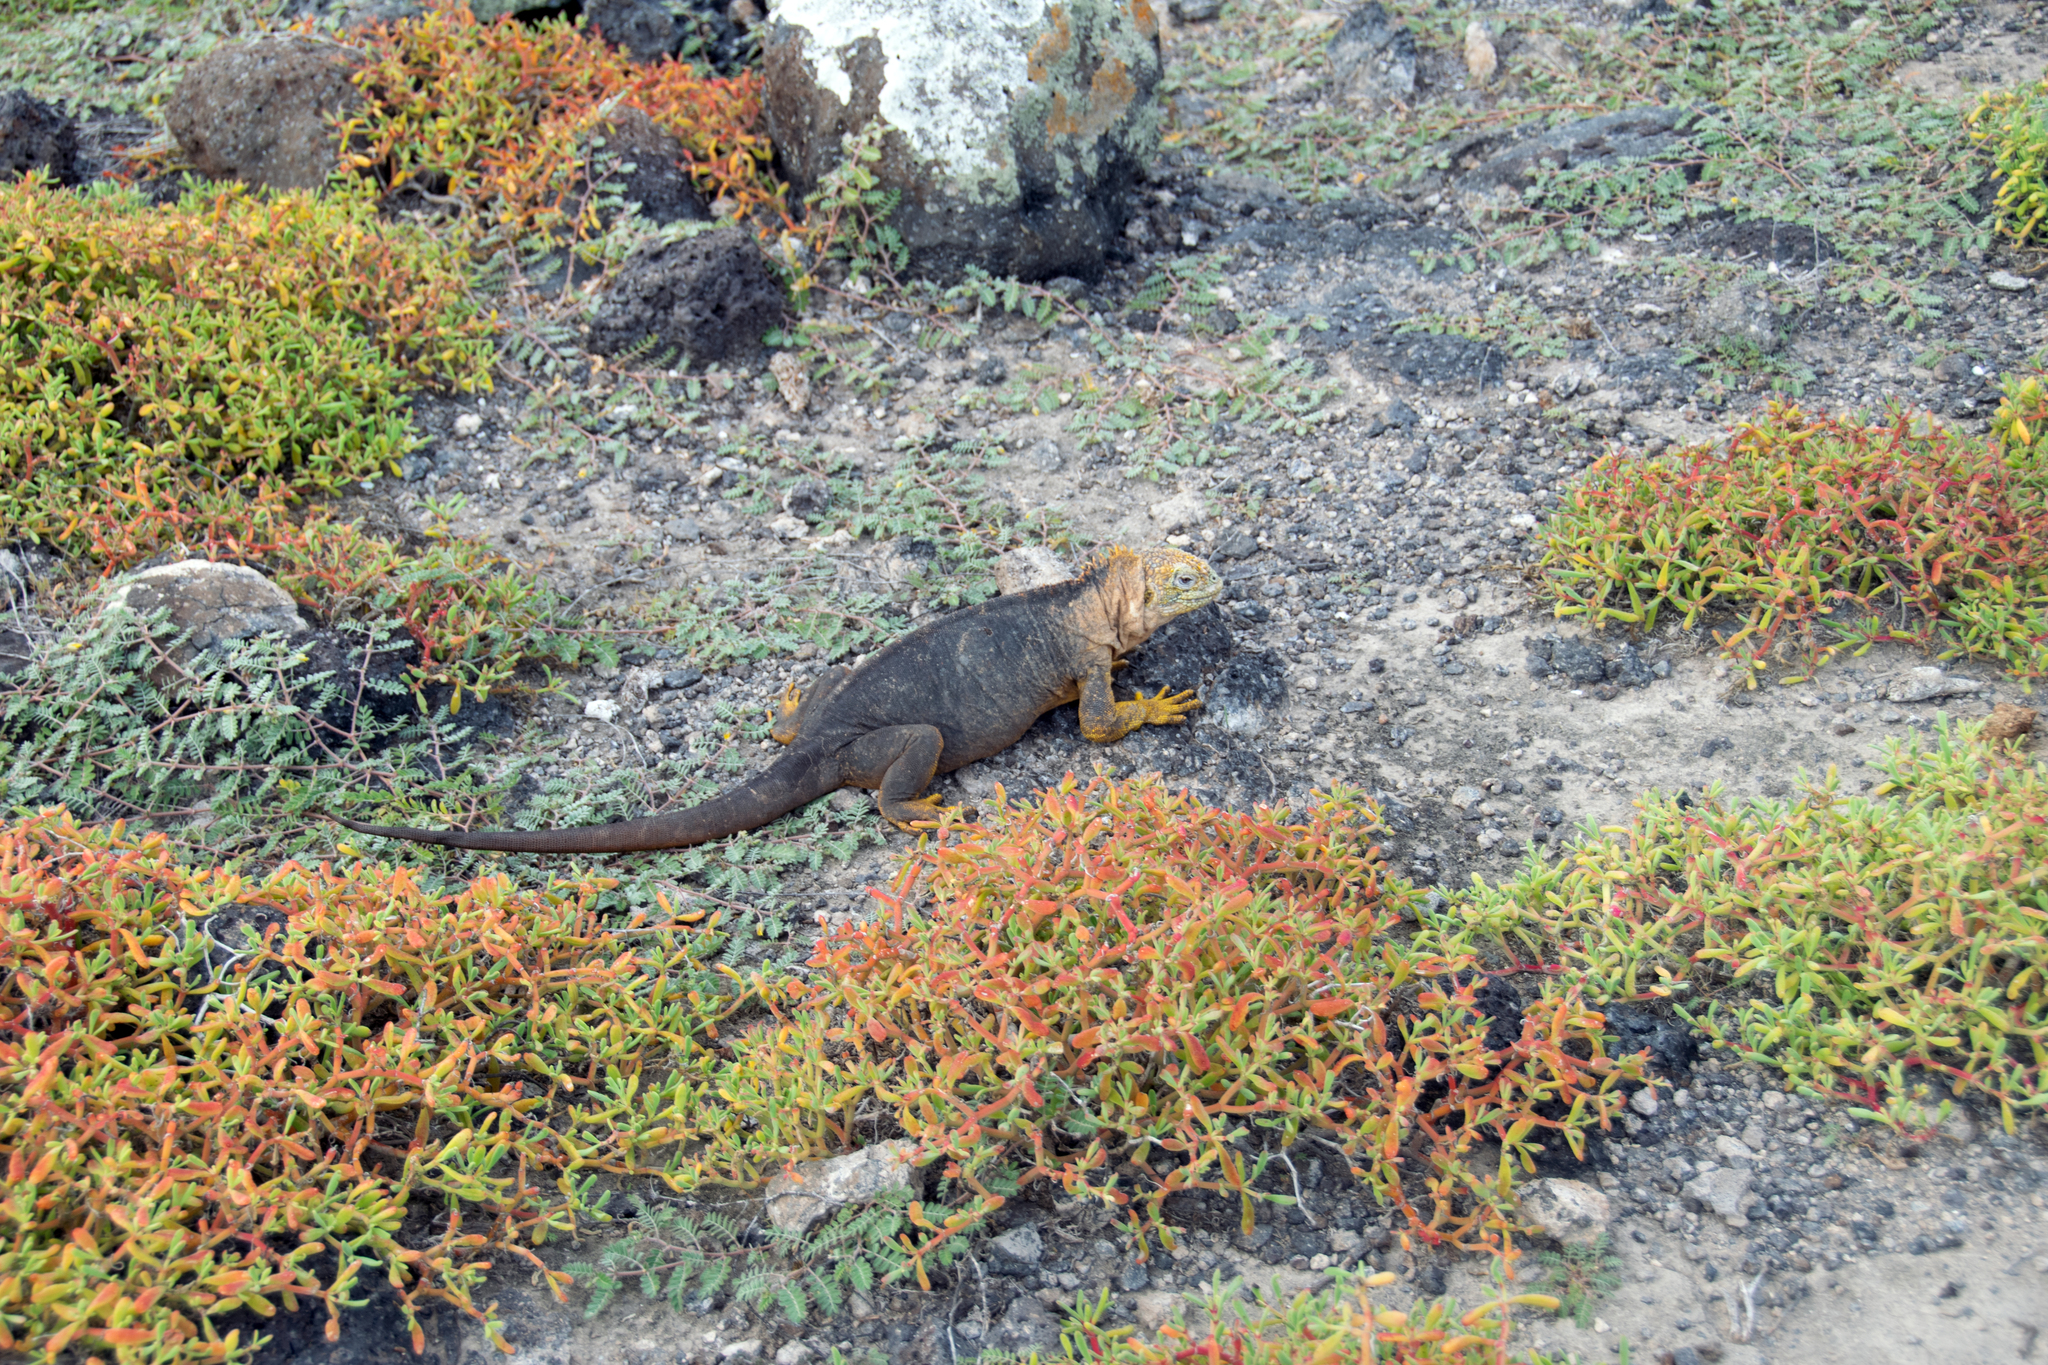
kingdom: Animalia
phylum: Chordata
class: Squamata
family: Iguanidae
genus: Conolophus
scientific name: Conolophus subcristatus
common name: Galapagos land iguana
